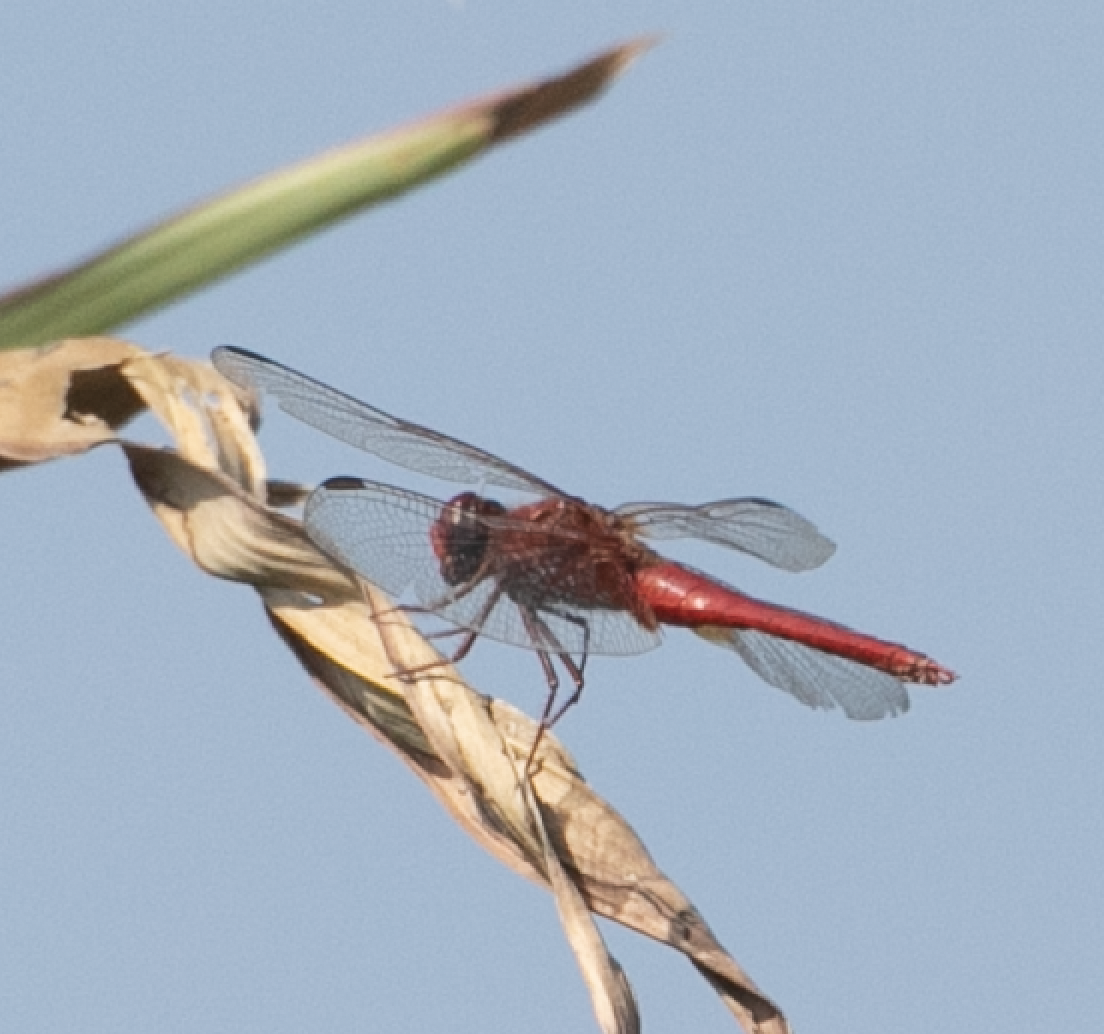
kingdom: Animalia
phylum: Arthropoda
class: Insecta
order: Odonata
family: Libellulidae
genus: Crocothemis
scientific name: Crocothemis erythraea
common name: Scarlet dragonfly
